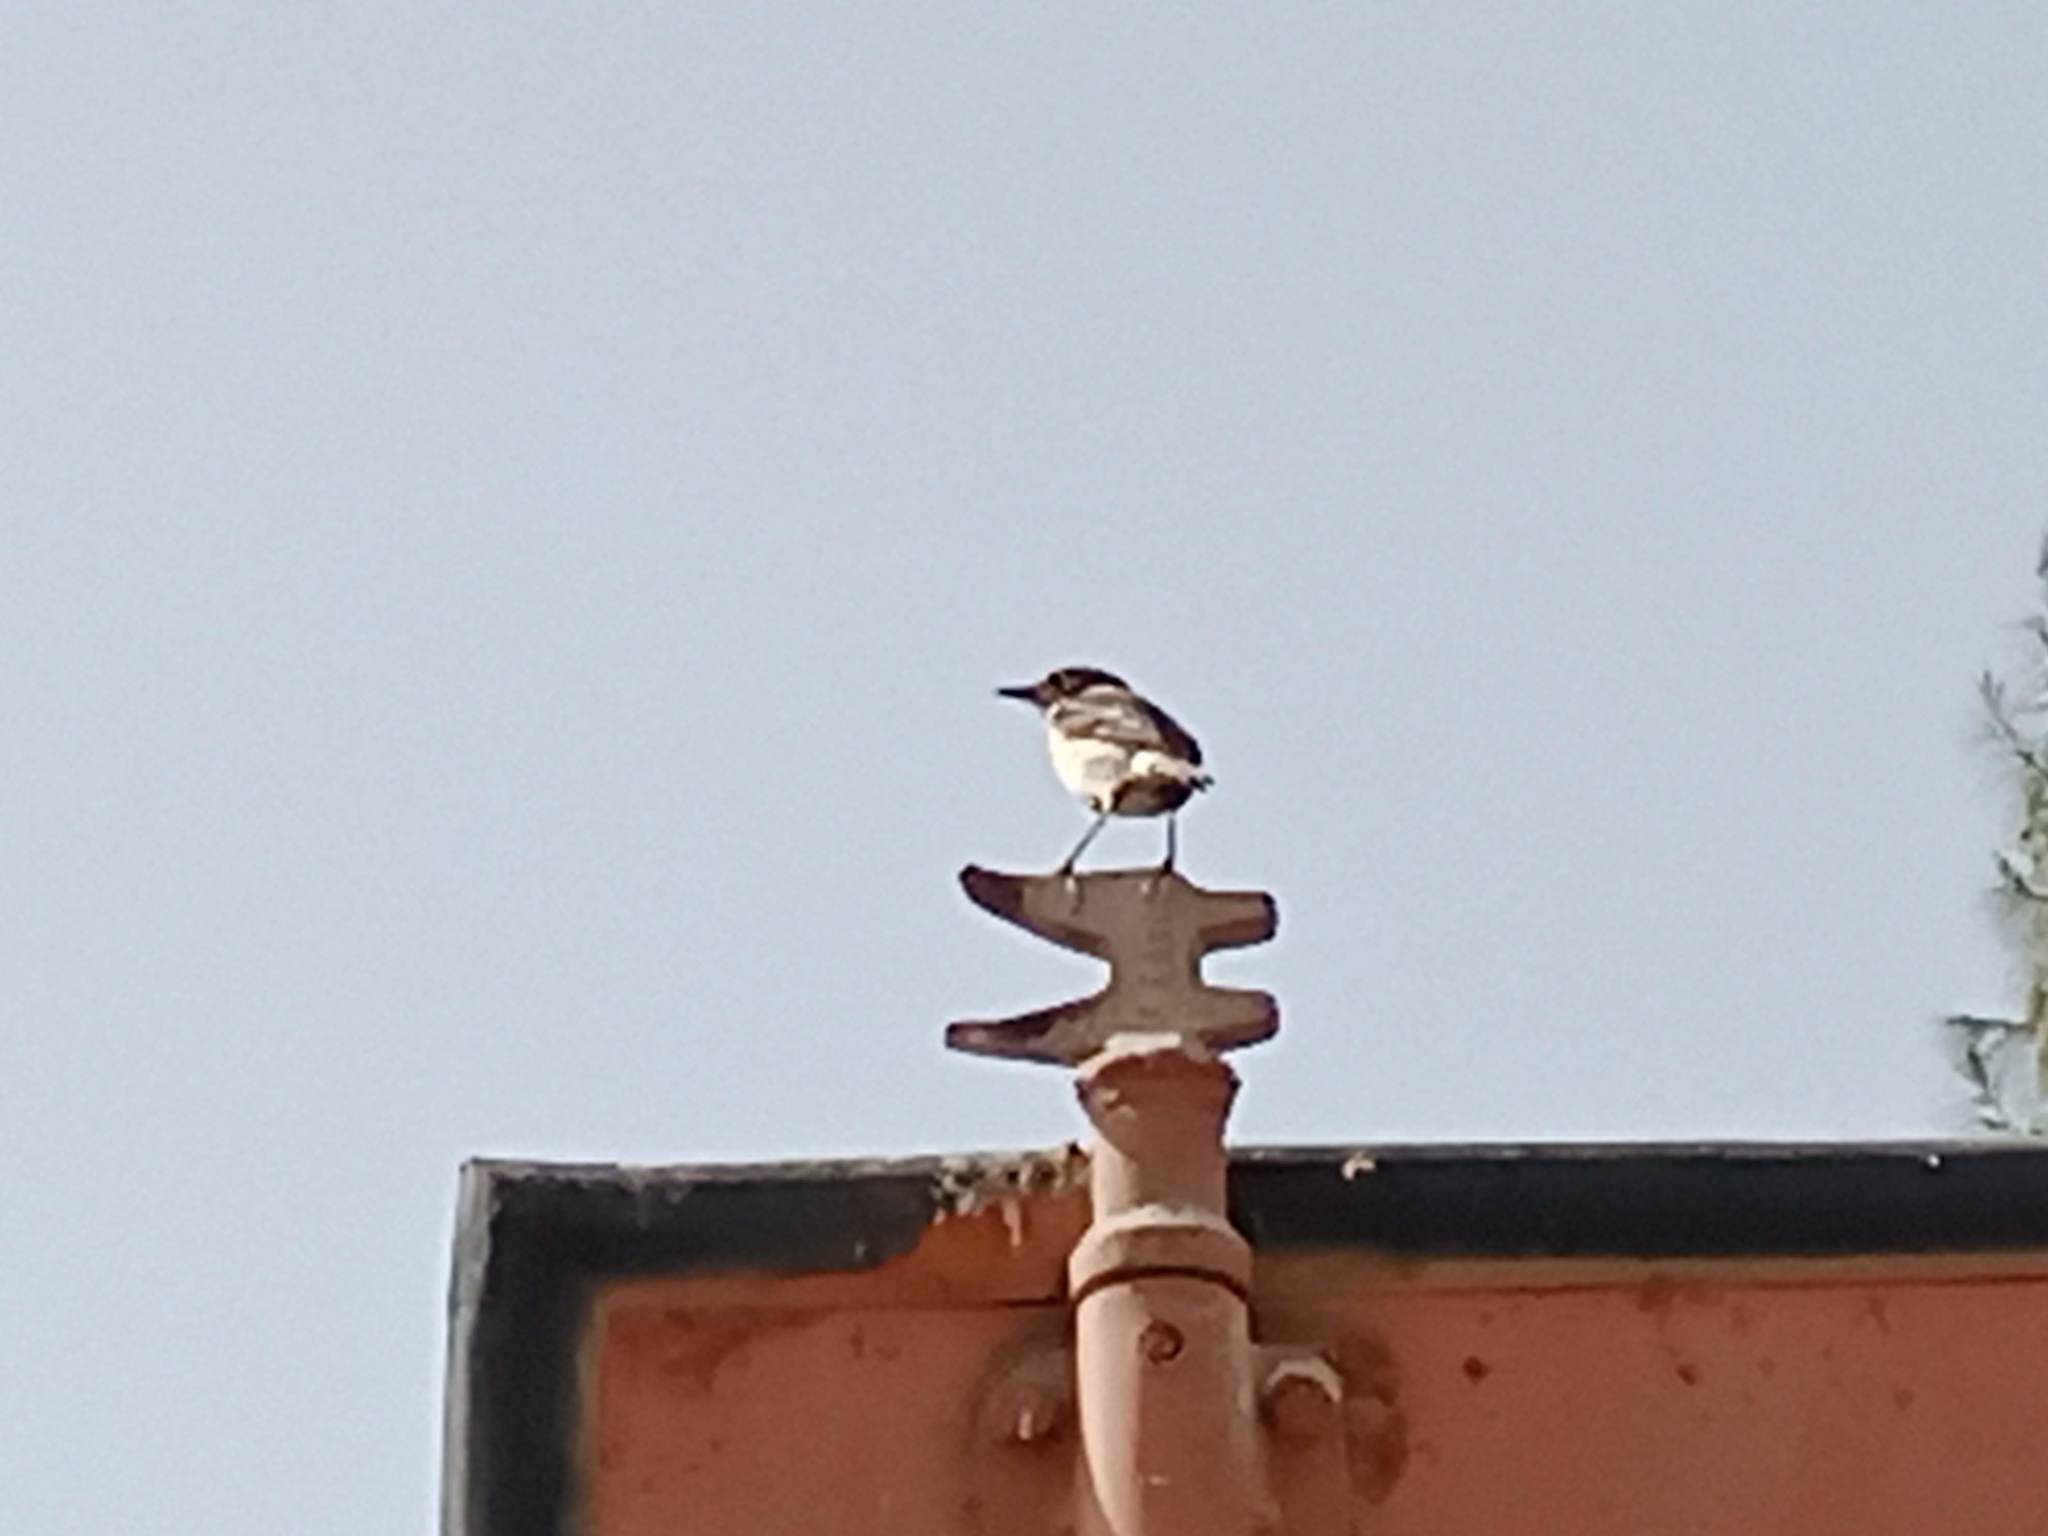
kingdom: Animalia
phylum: Chordata
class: Aves
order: Passeriformes
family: Muscicapidae
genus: Saxicola
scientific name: Saxicola dacotiae
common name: Canary islands stonechat
